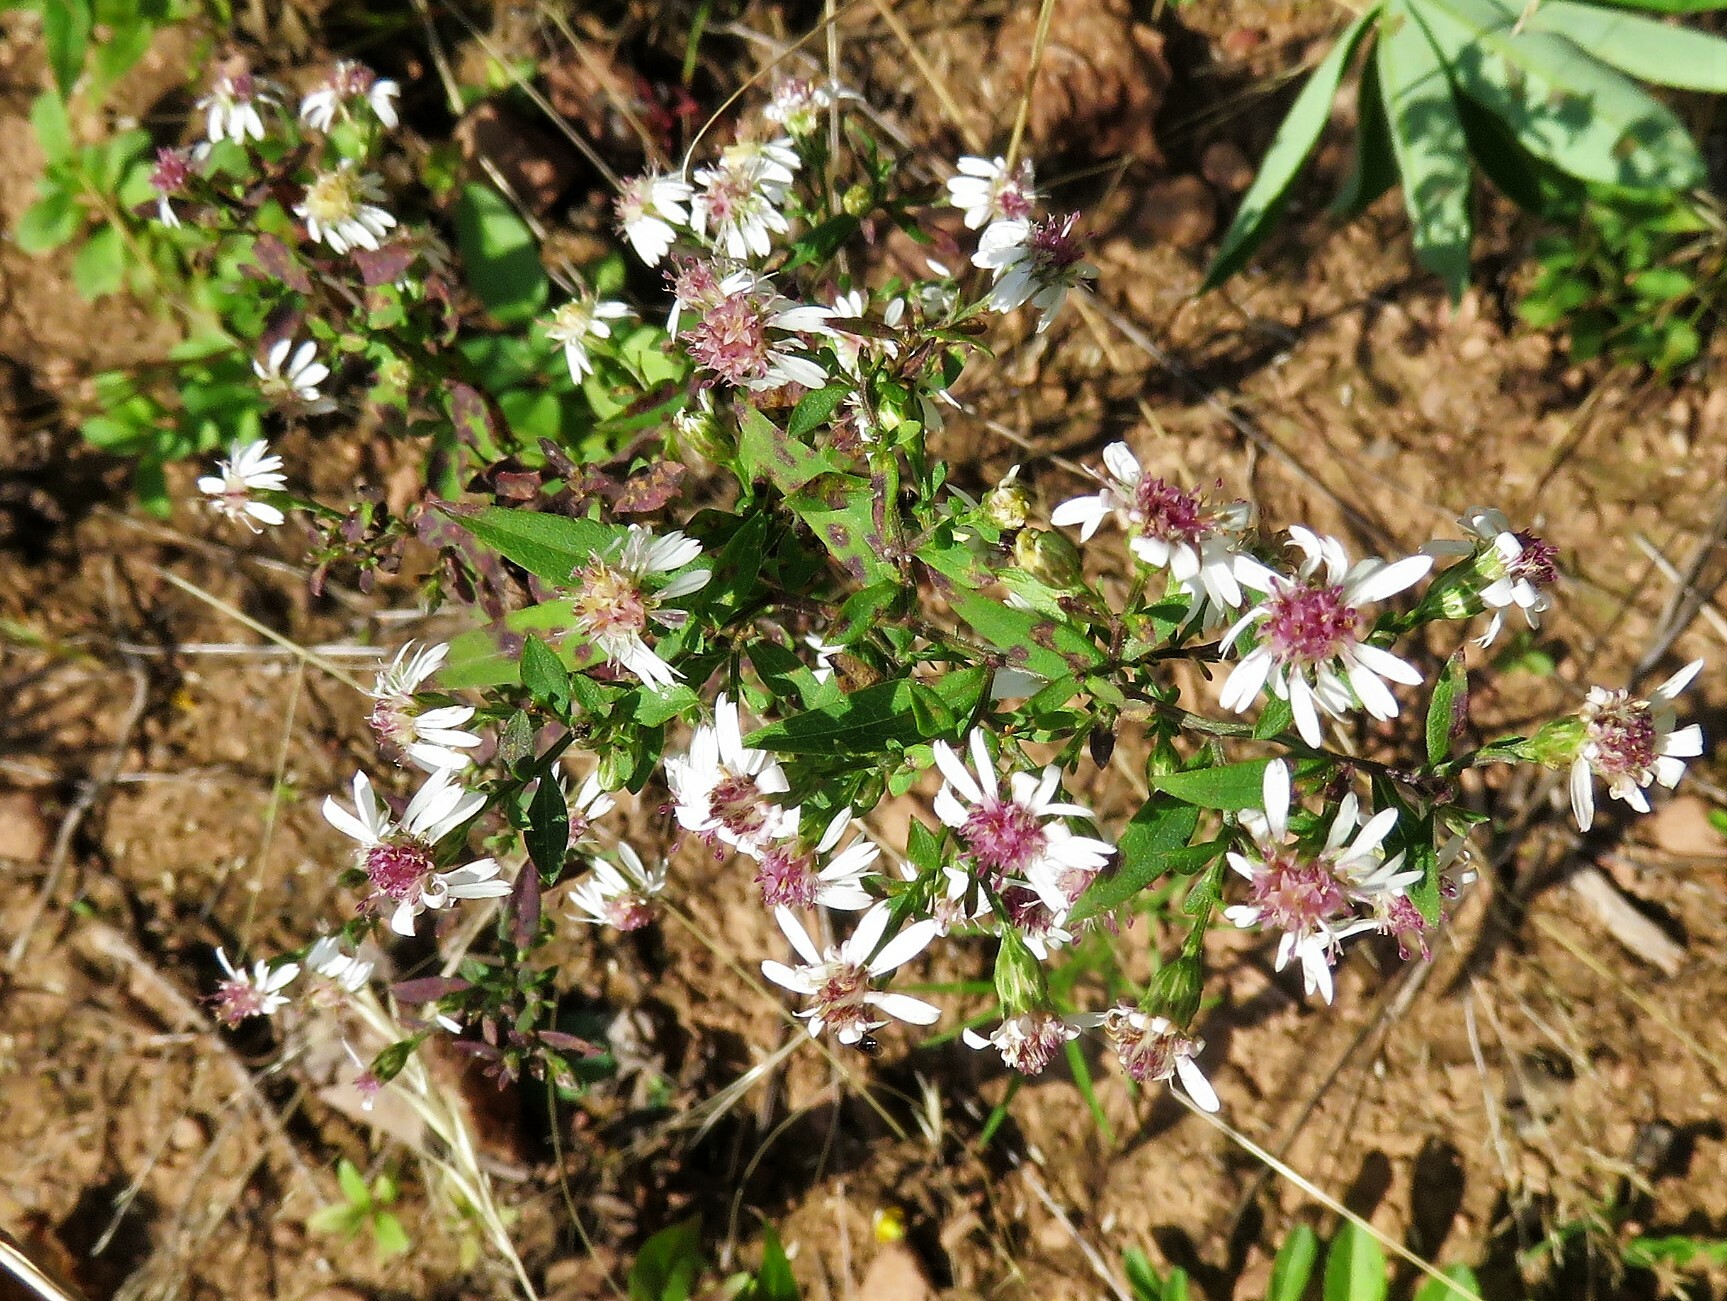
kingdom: Plantae
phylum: Tracheophyta
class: Magnoliopsida
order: Asterales
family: Asteraceae
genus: Symphyotrichum
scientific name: Symphyotrichum lateriflorum
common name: Calico aster
